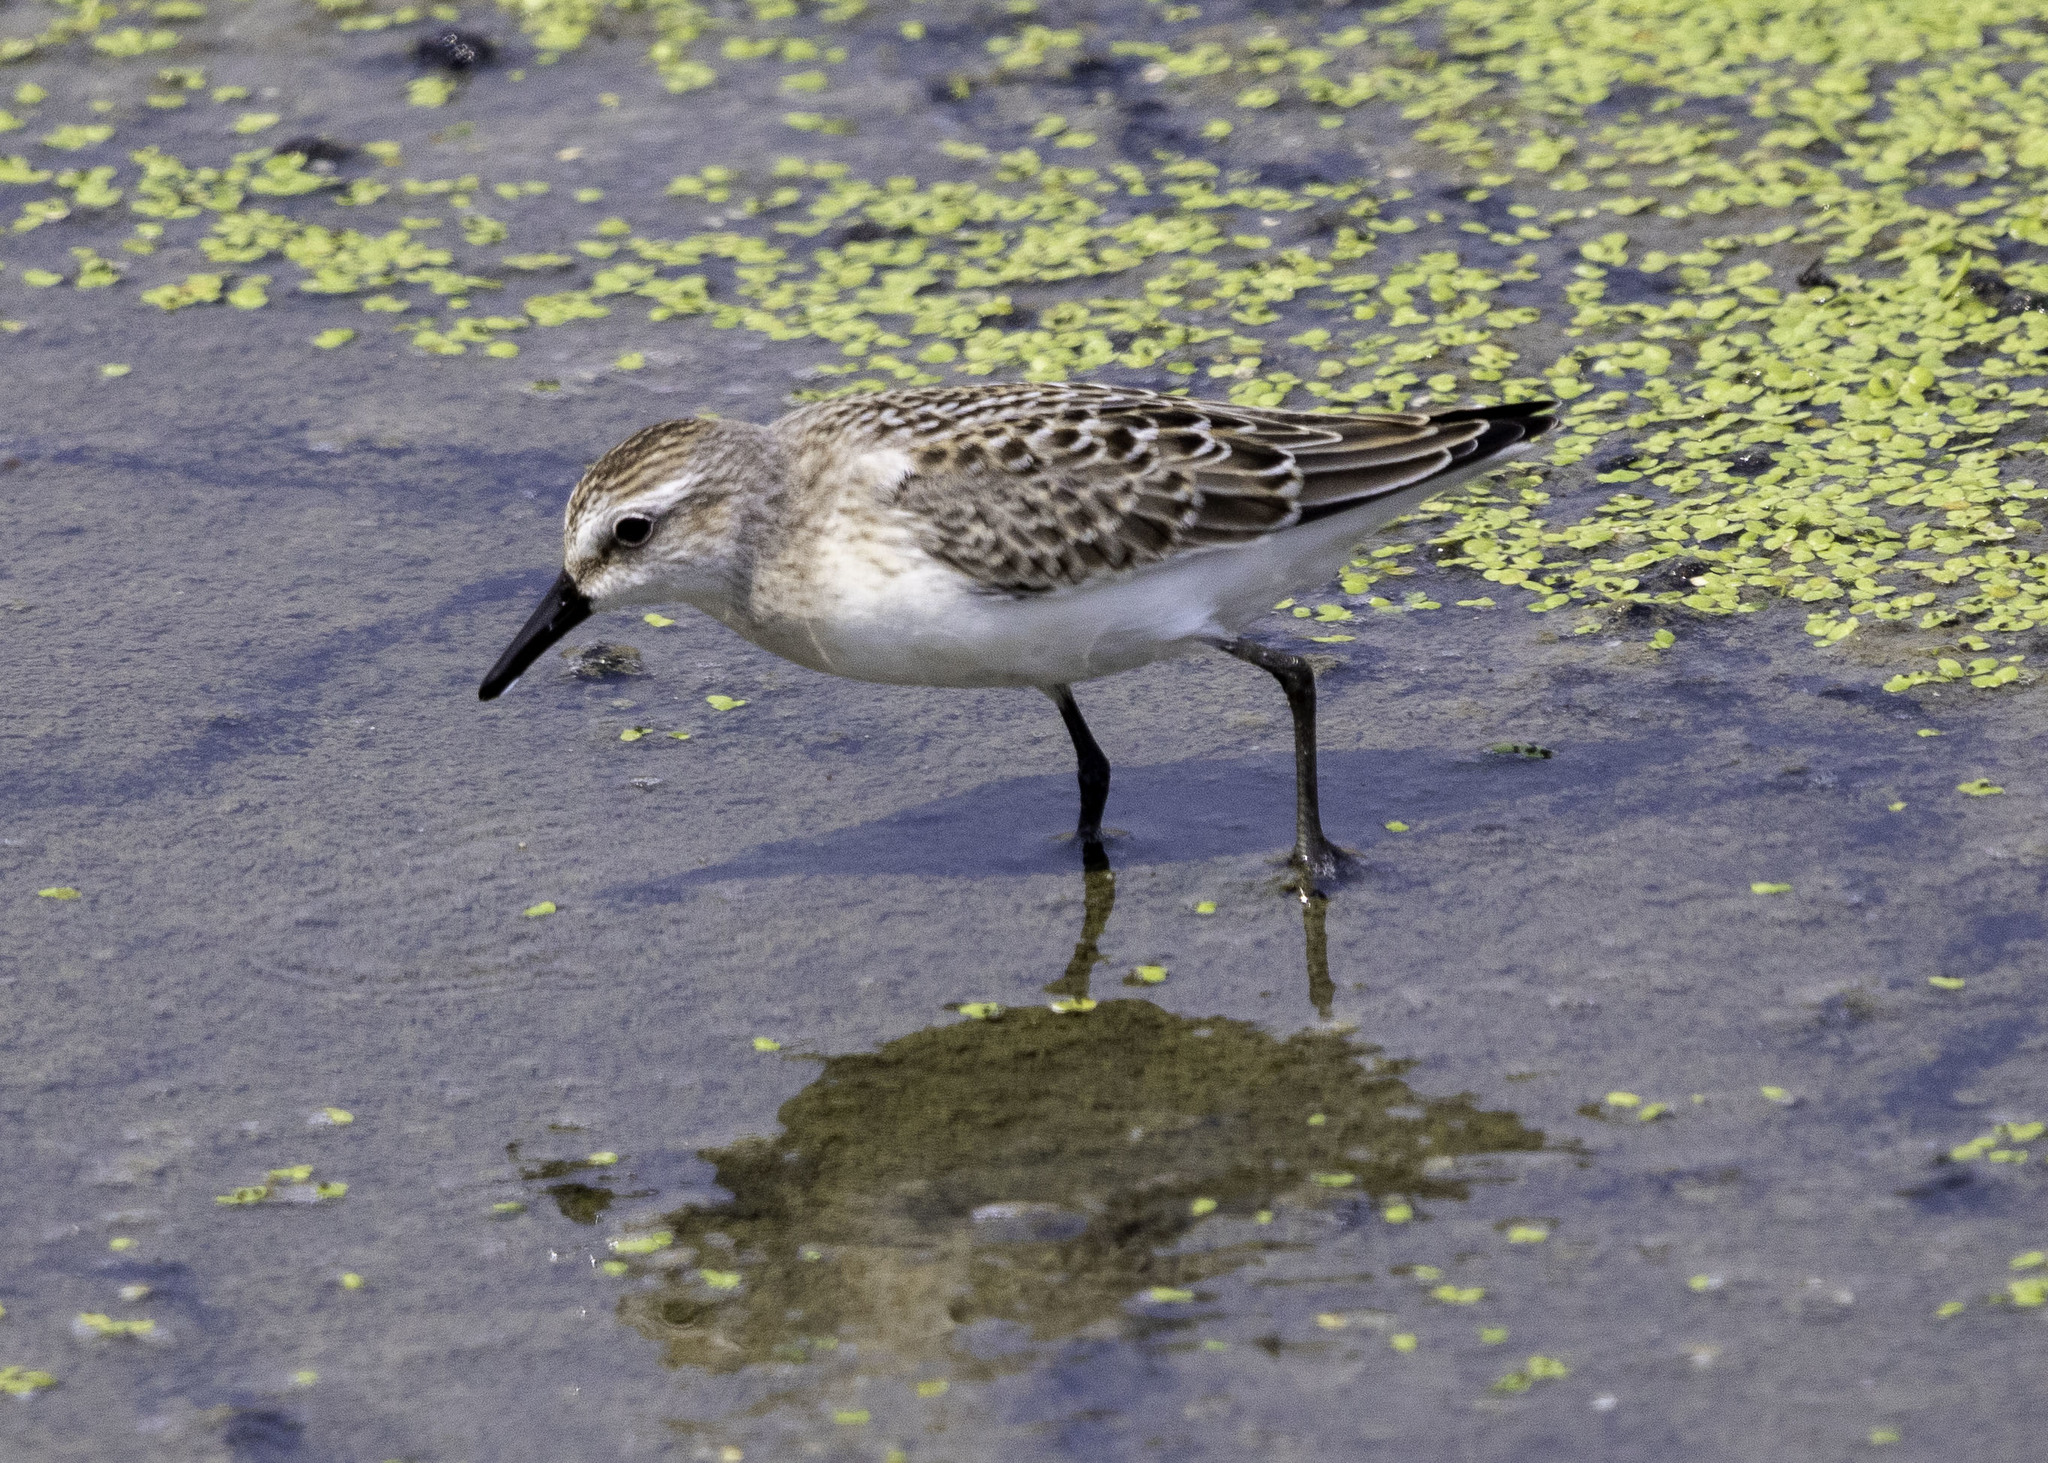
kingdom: Animalia
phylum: Chordata
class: Aves
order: Charadriiformes
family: Scolopacidae
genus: Calidris
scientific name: Calidris pusilla
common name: Semipalmated sandpiper
